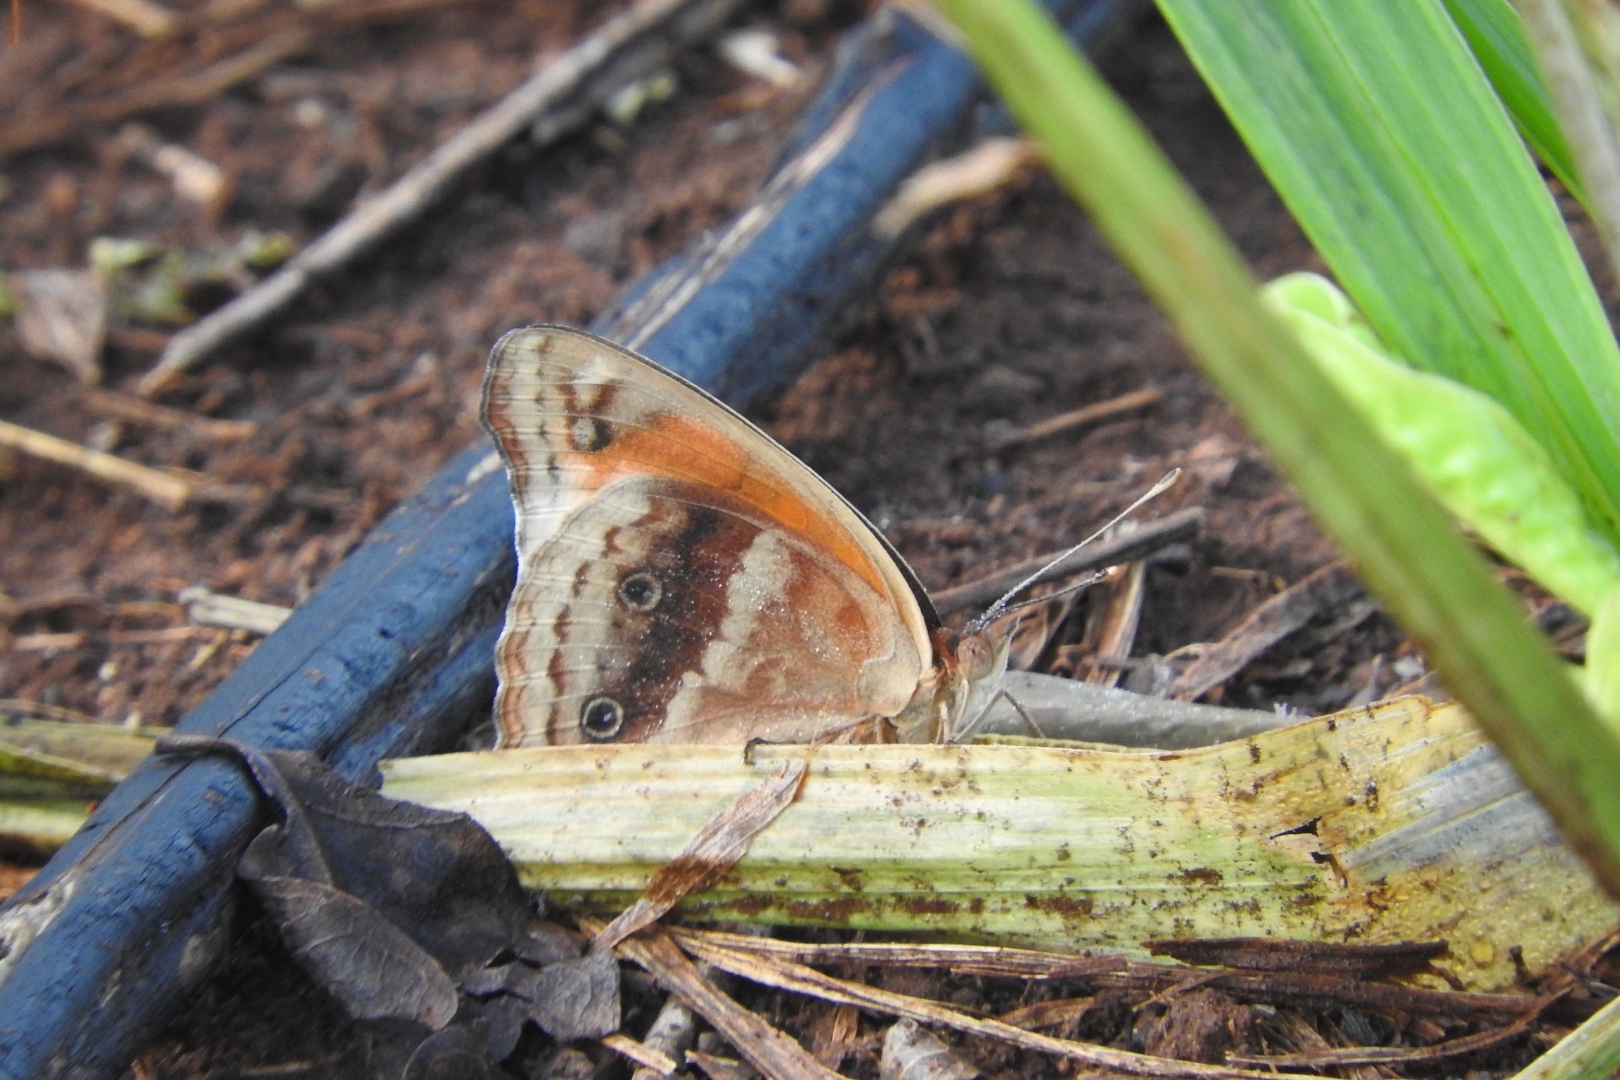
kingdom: Animalia
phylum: Arthropoda
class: Insecta
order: Lepidoptera
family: Nymphalidae
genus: Junonia
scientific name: Junonia lavinia
